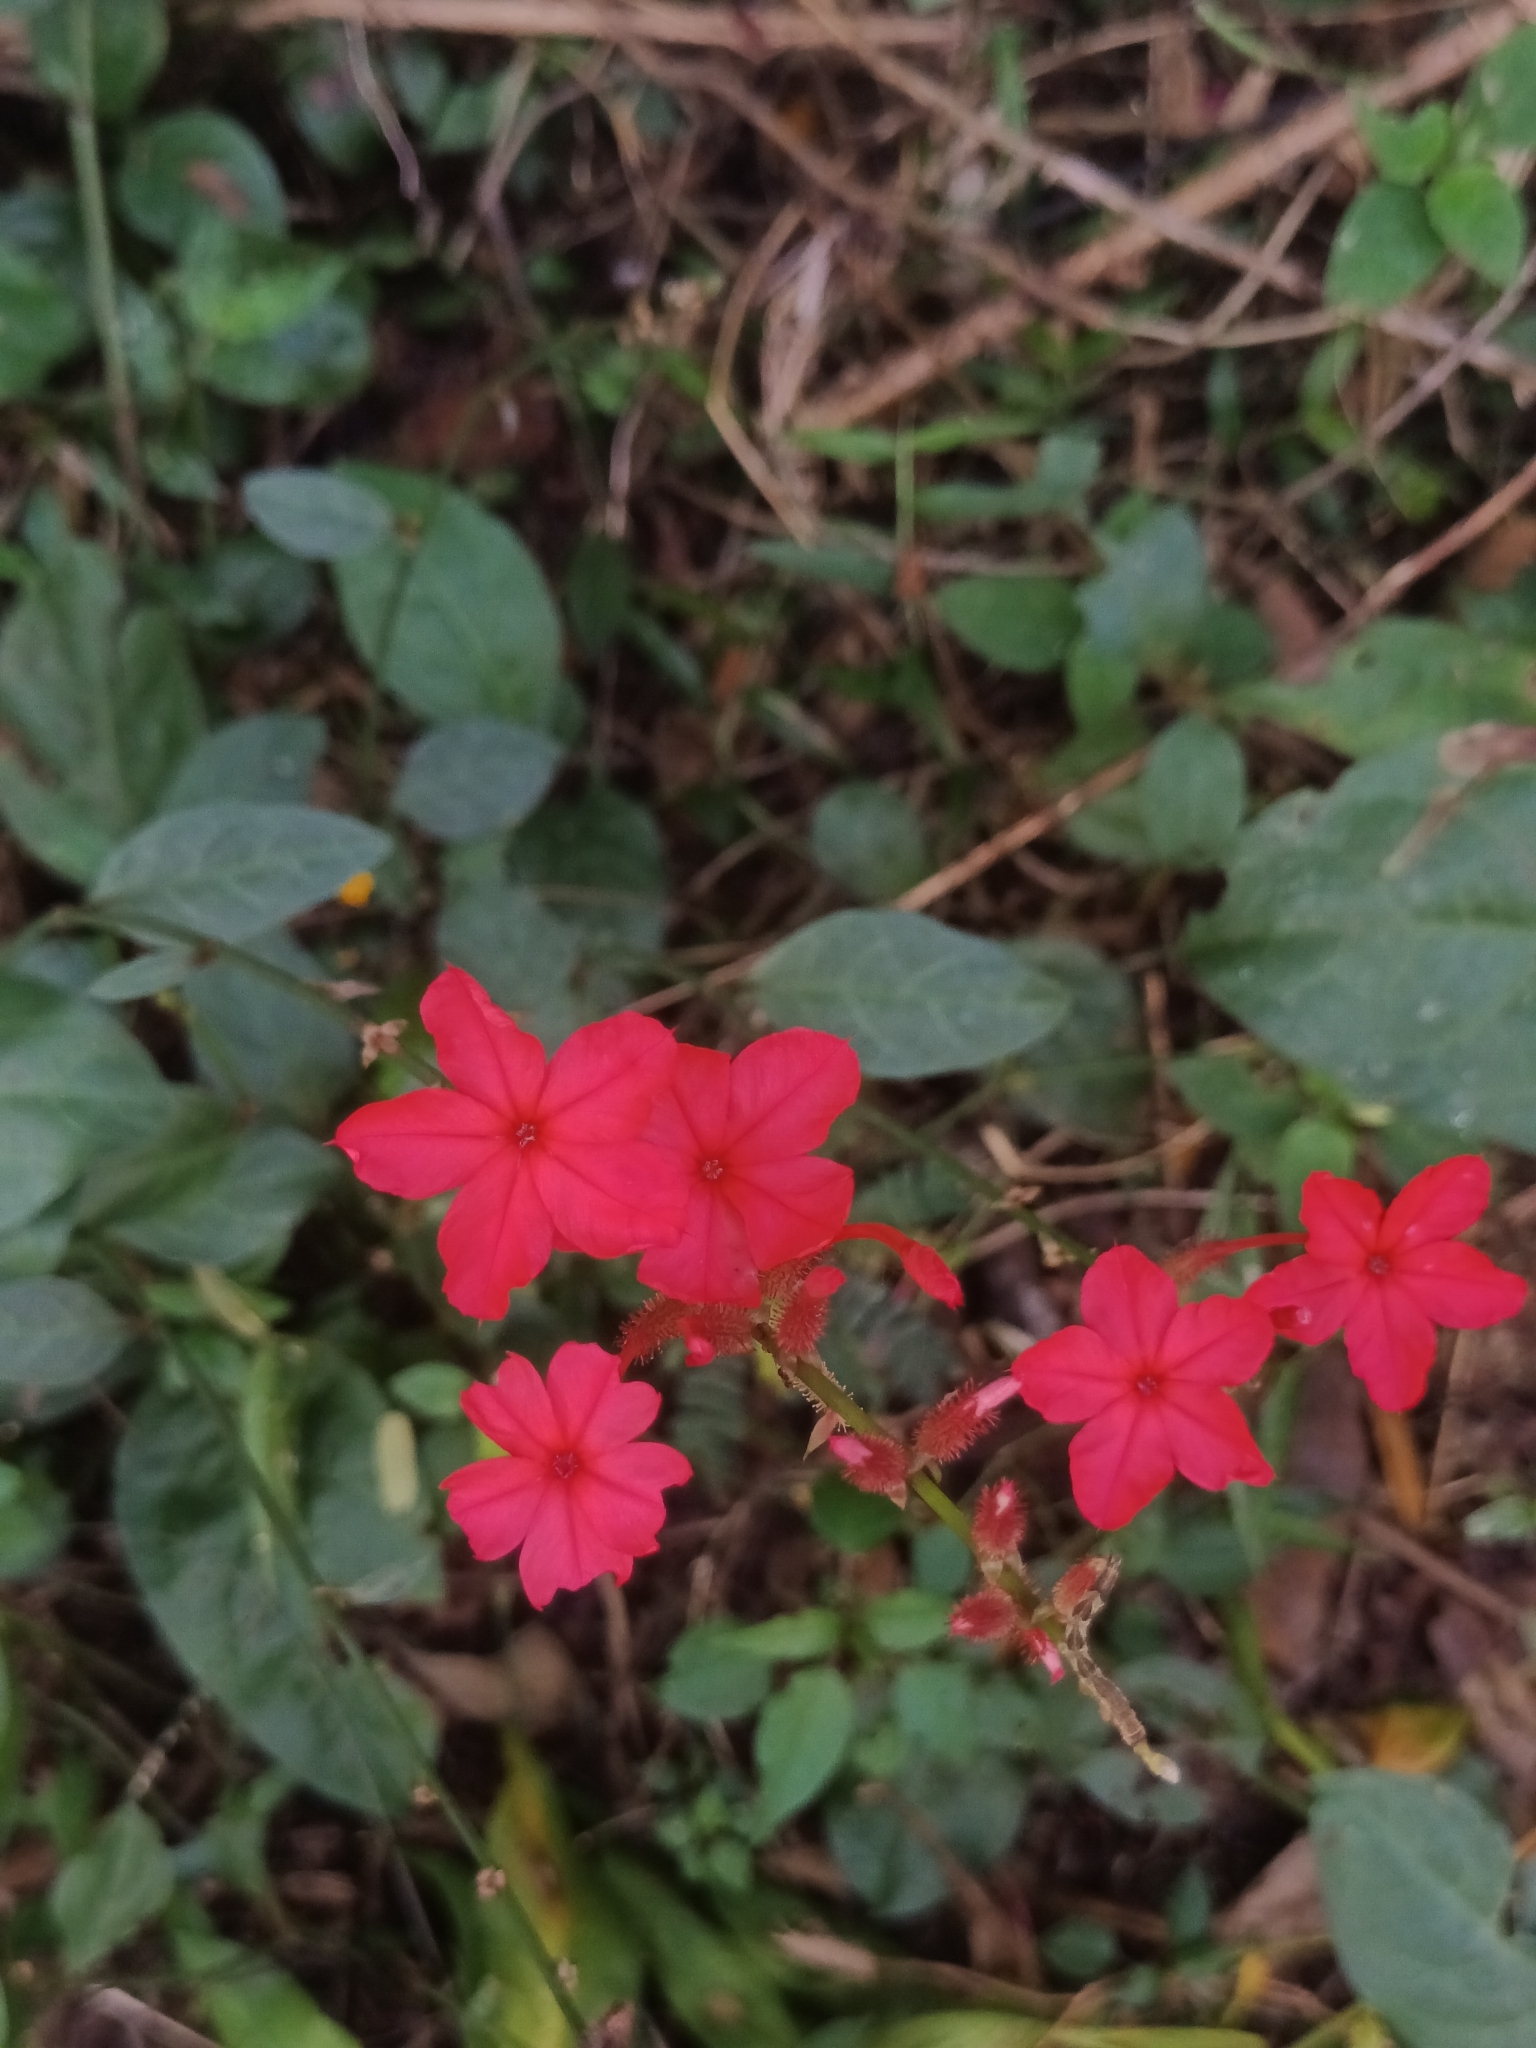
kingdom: Plantae
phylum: Tracheophyta
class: Magnoliopsida
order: Caryophyllales
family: Plumbaginaceae
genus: Plumbago
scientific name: Plumbago indica
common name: Indian leadwort
